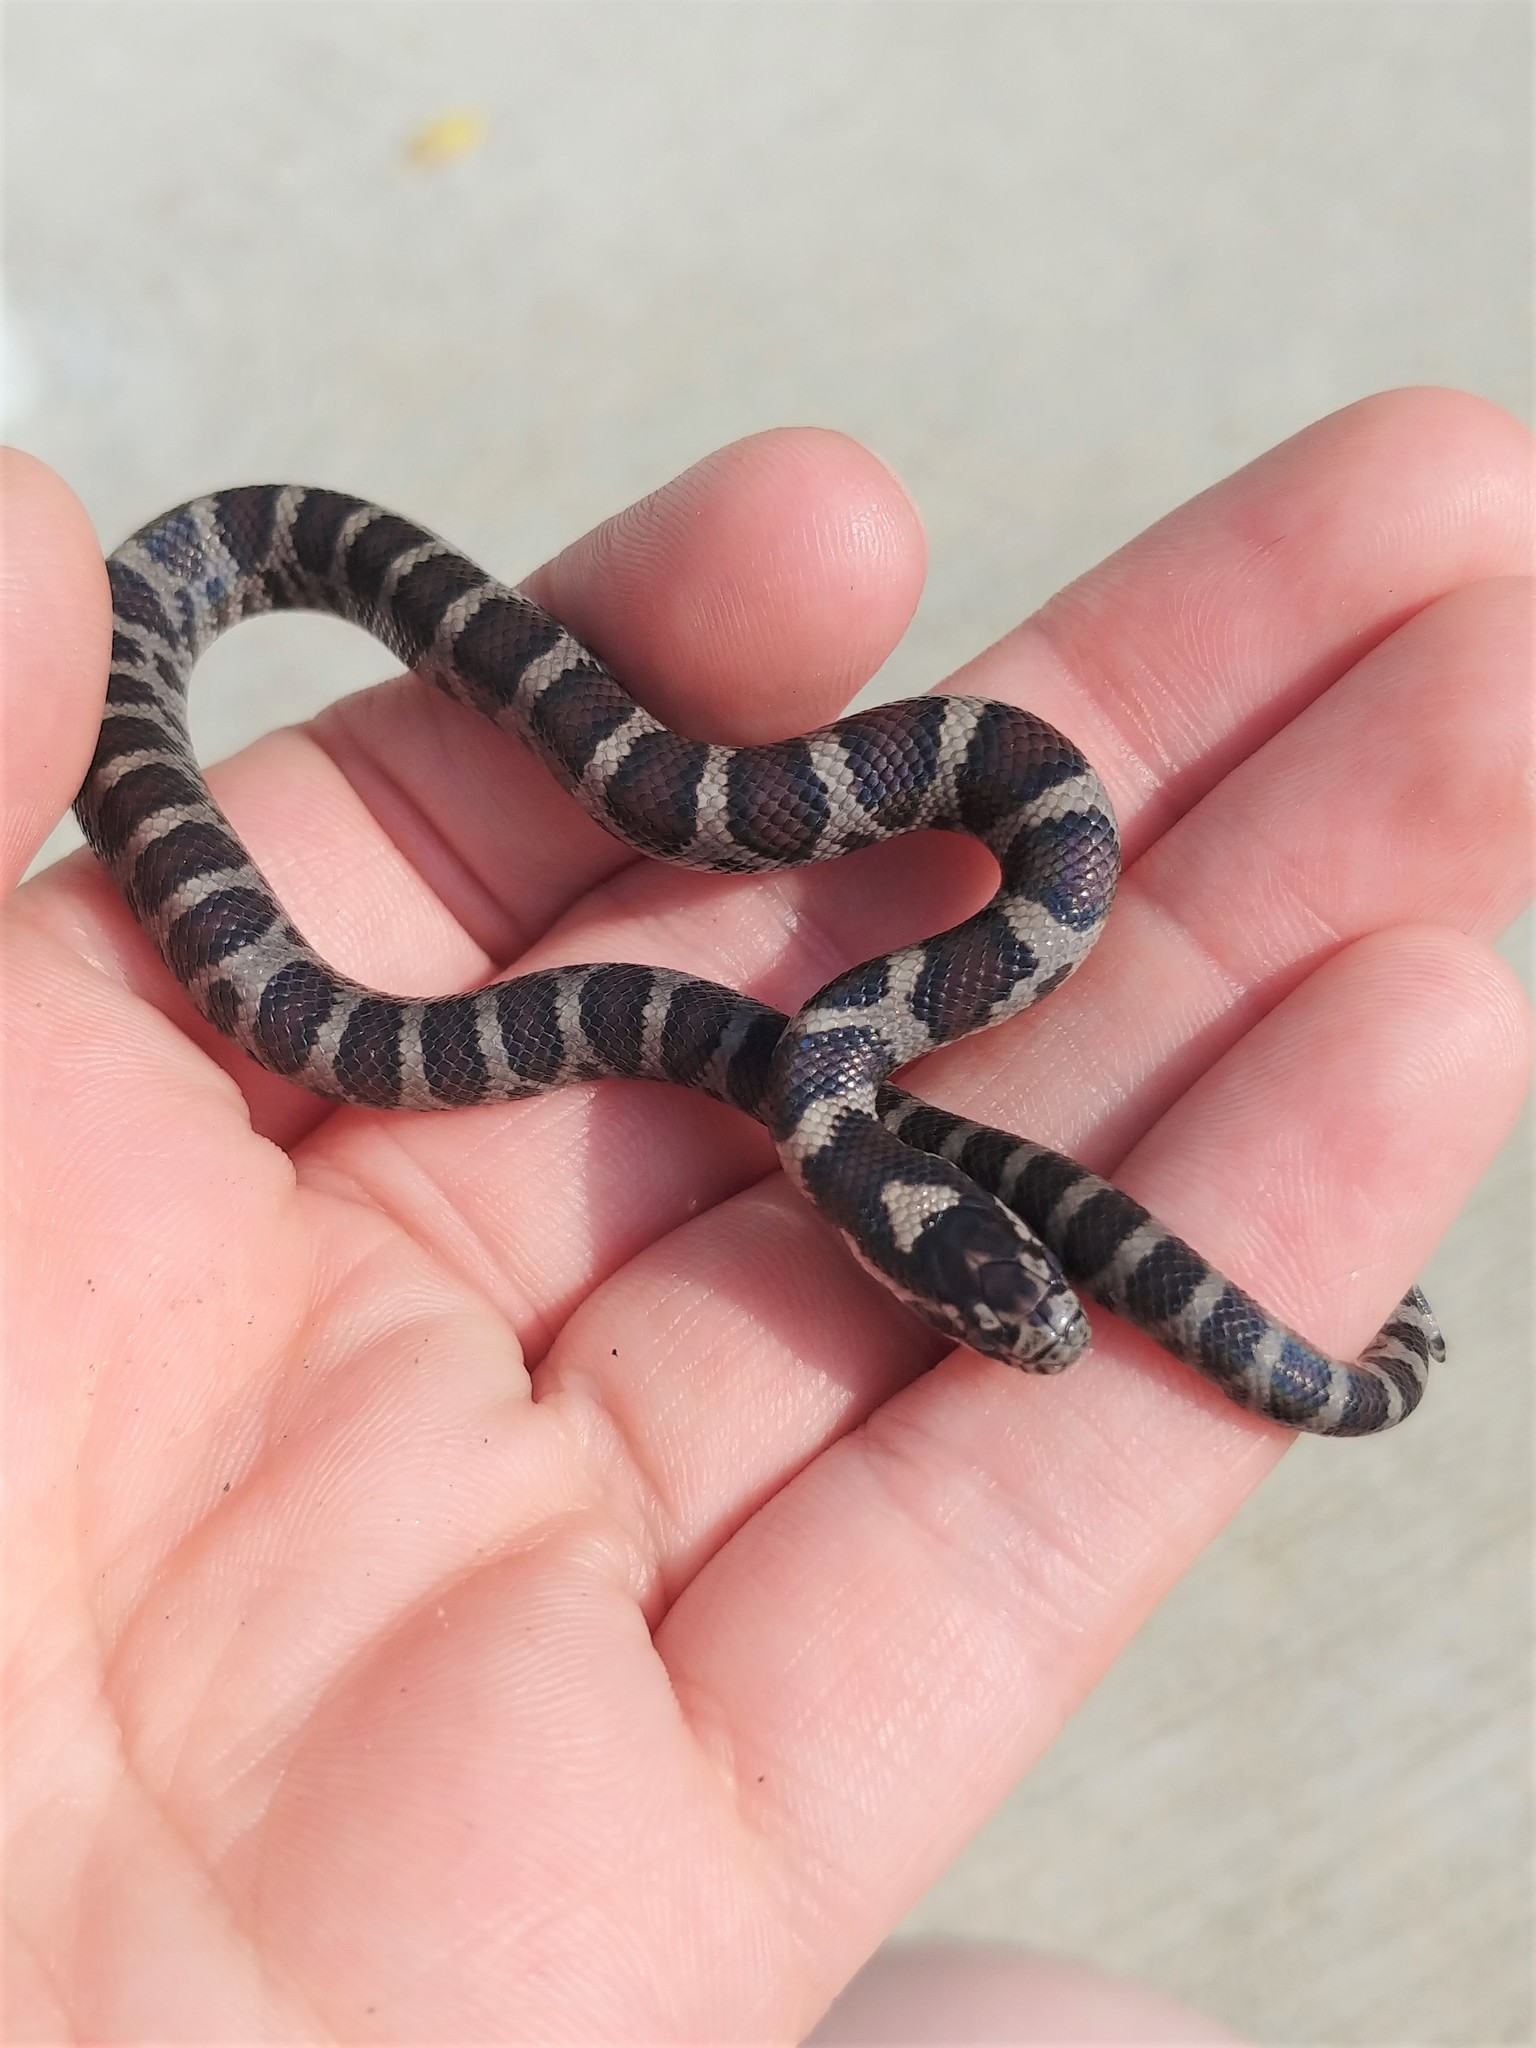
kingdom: Animalia
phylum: Chordata
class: Squamata
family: Colubridae
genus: Lampropeltis
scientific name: Lampropeltis triangulum
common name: Eastern milksnake
